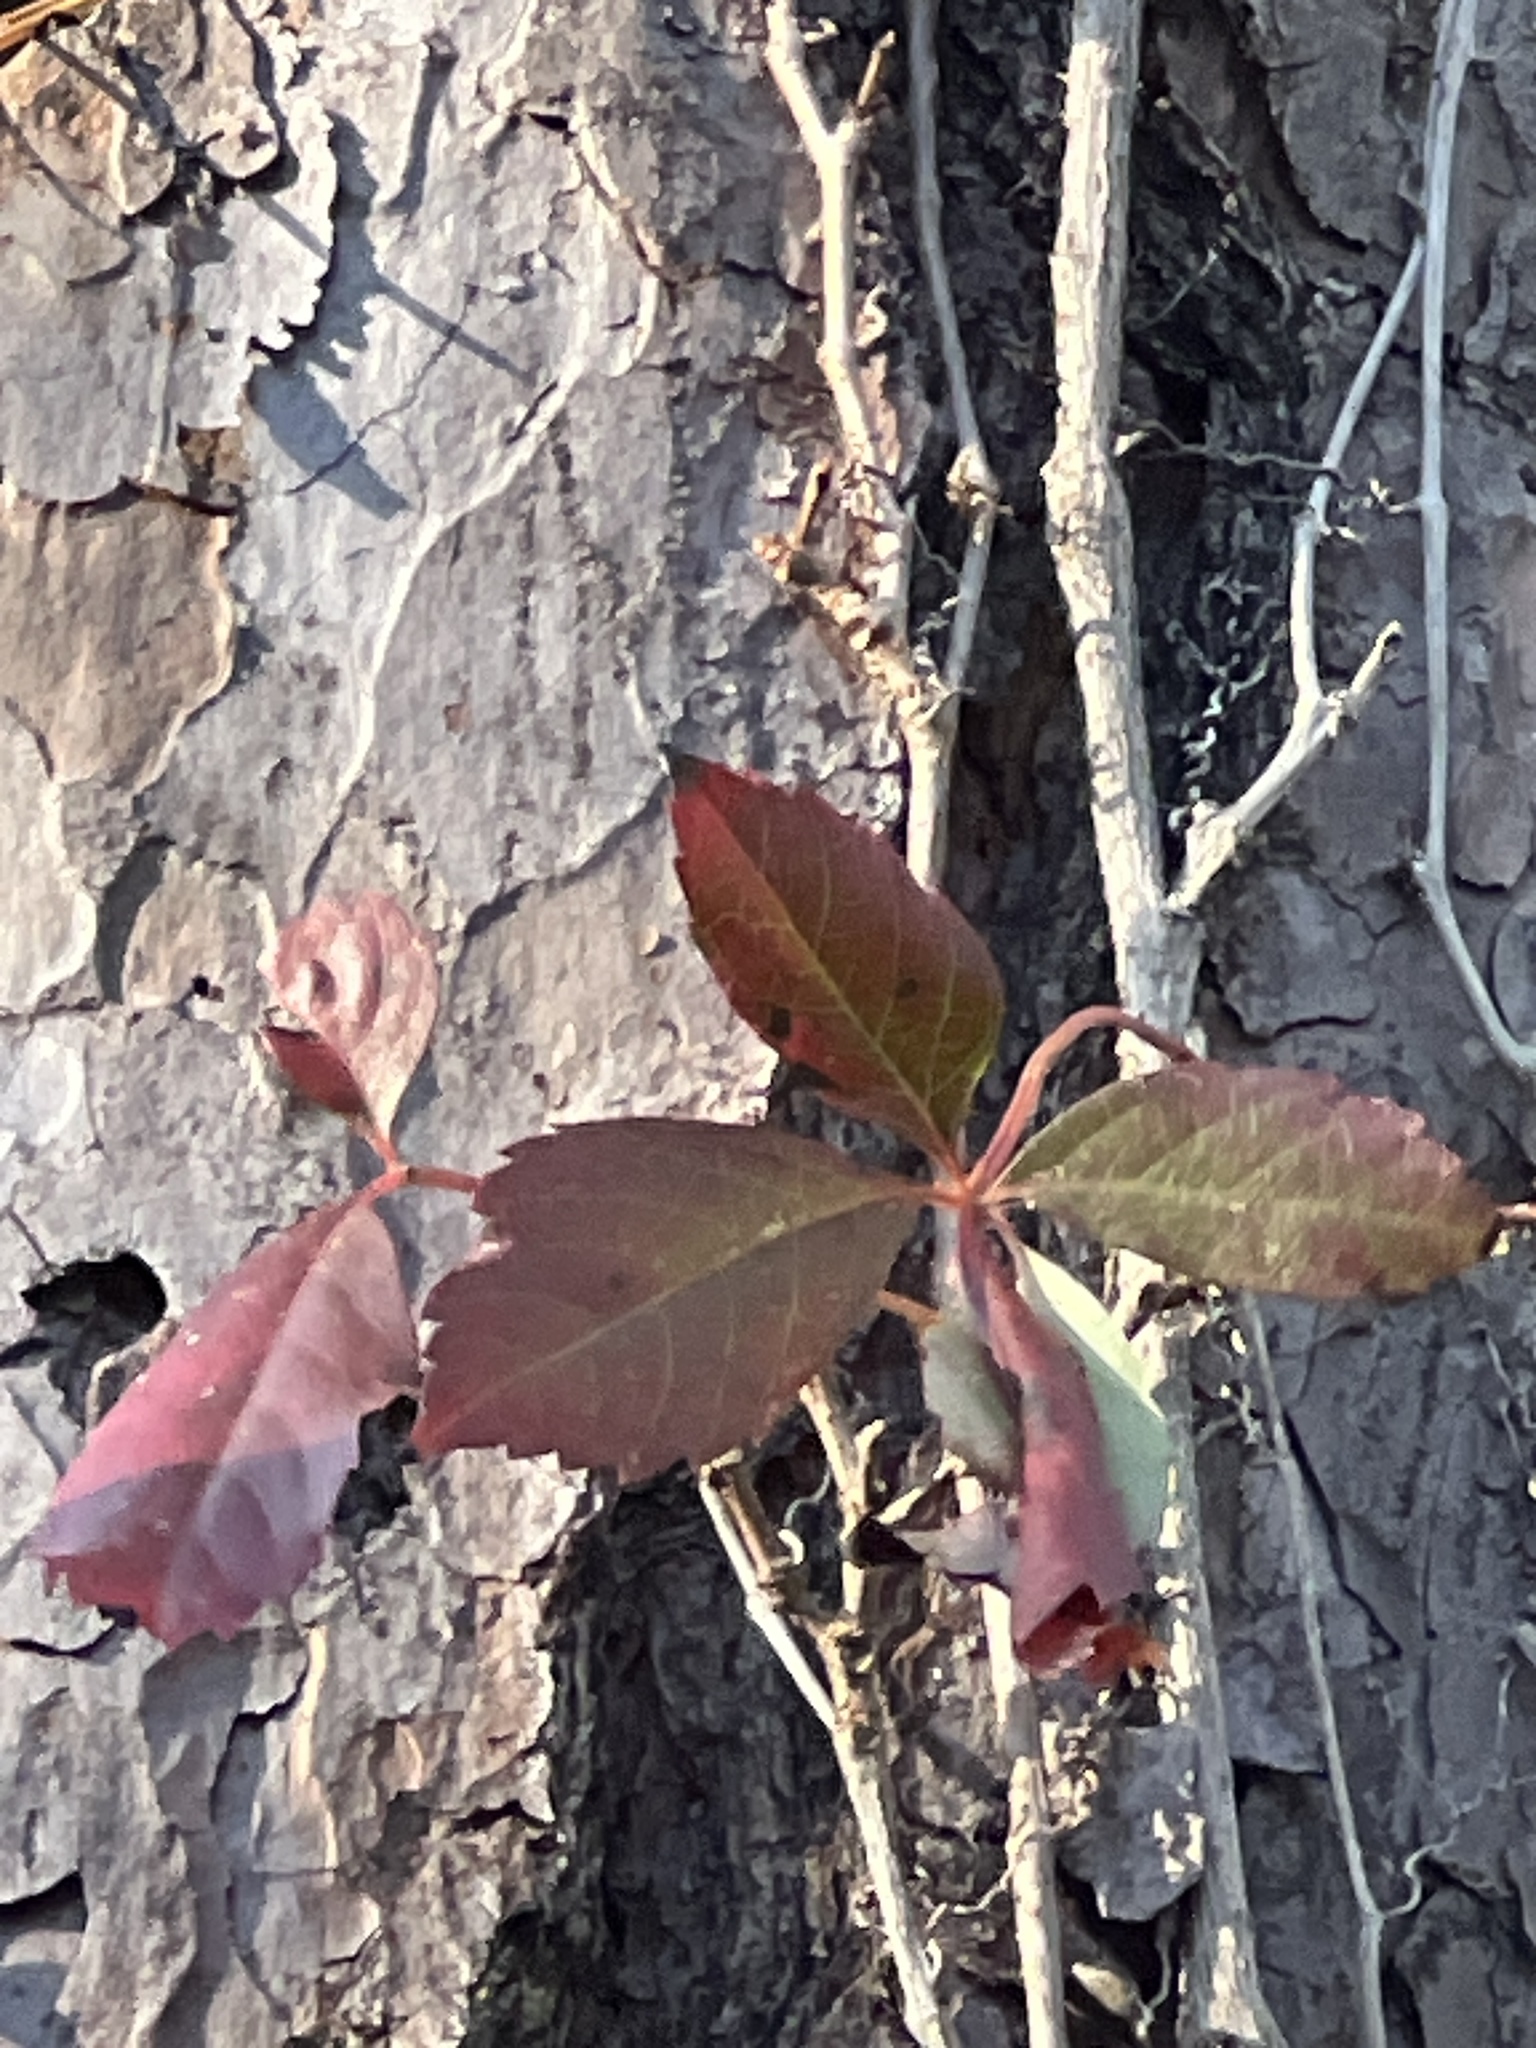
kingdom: Plantae
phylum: Tracheophyta
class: Magnoliopsida
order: Vitales
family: Vitaceae
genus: Parthenocissus
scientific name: Parthenocissus quinquefolia
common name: Virginia-creeper
